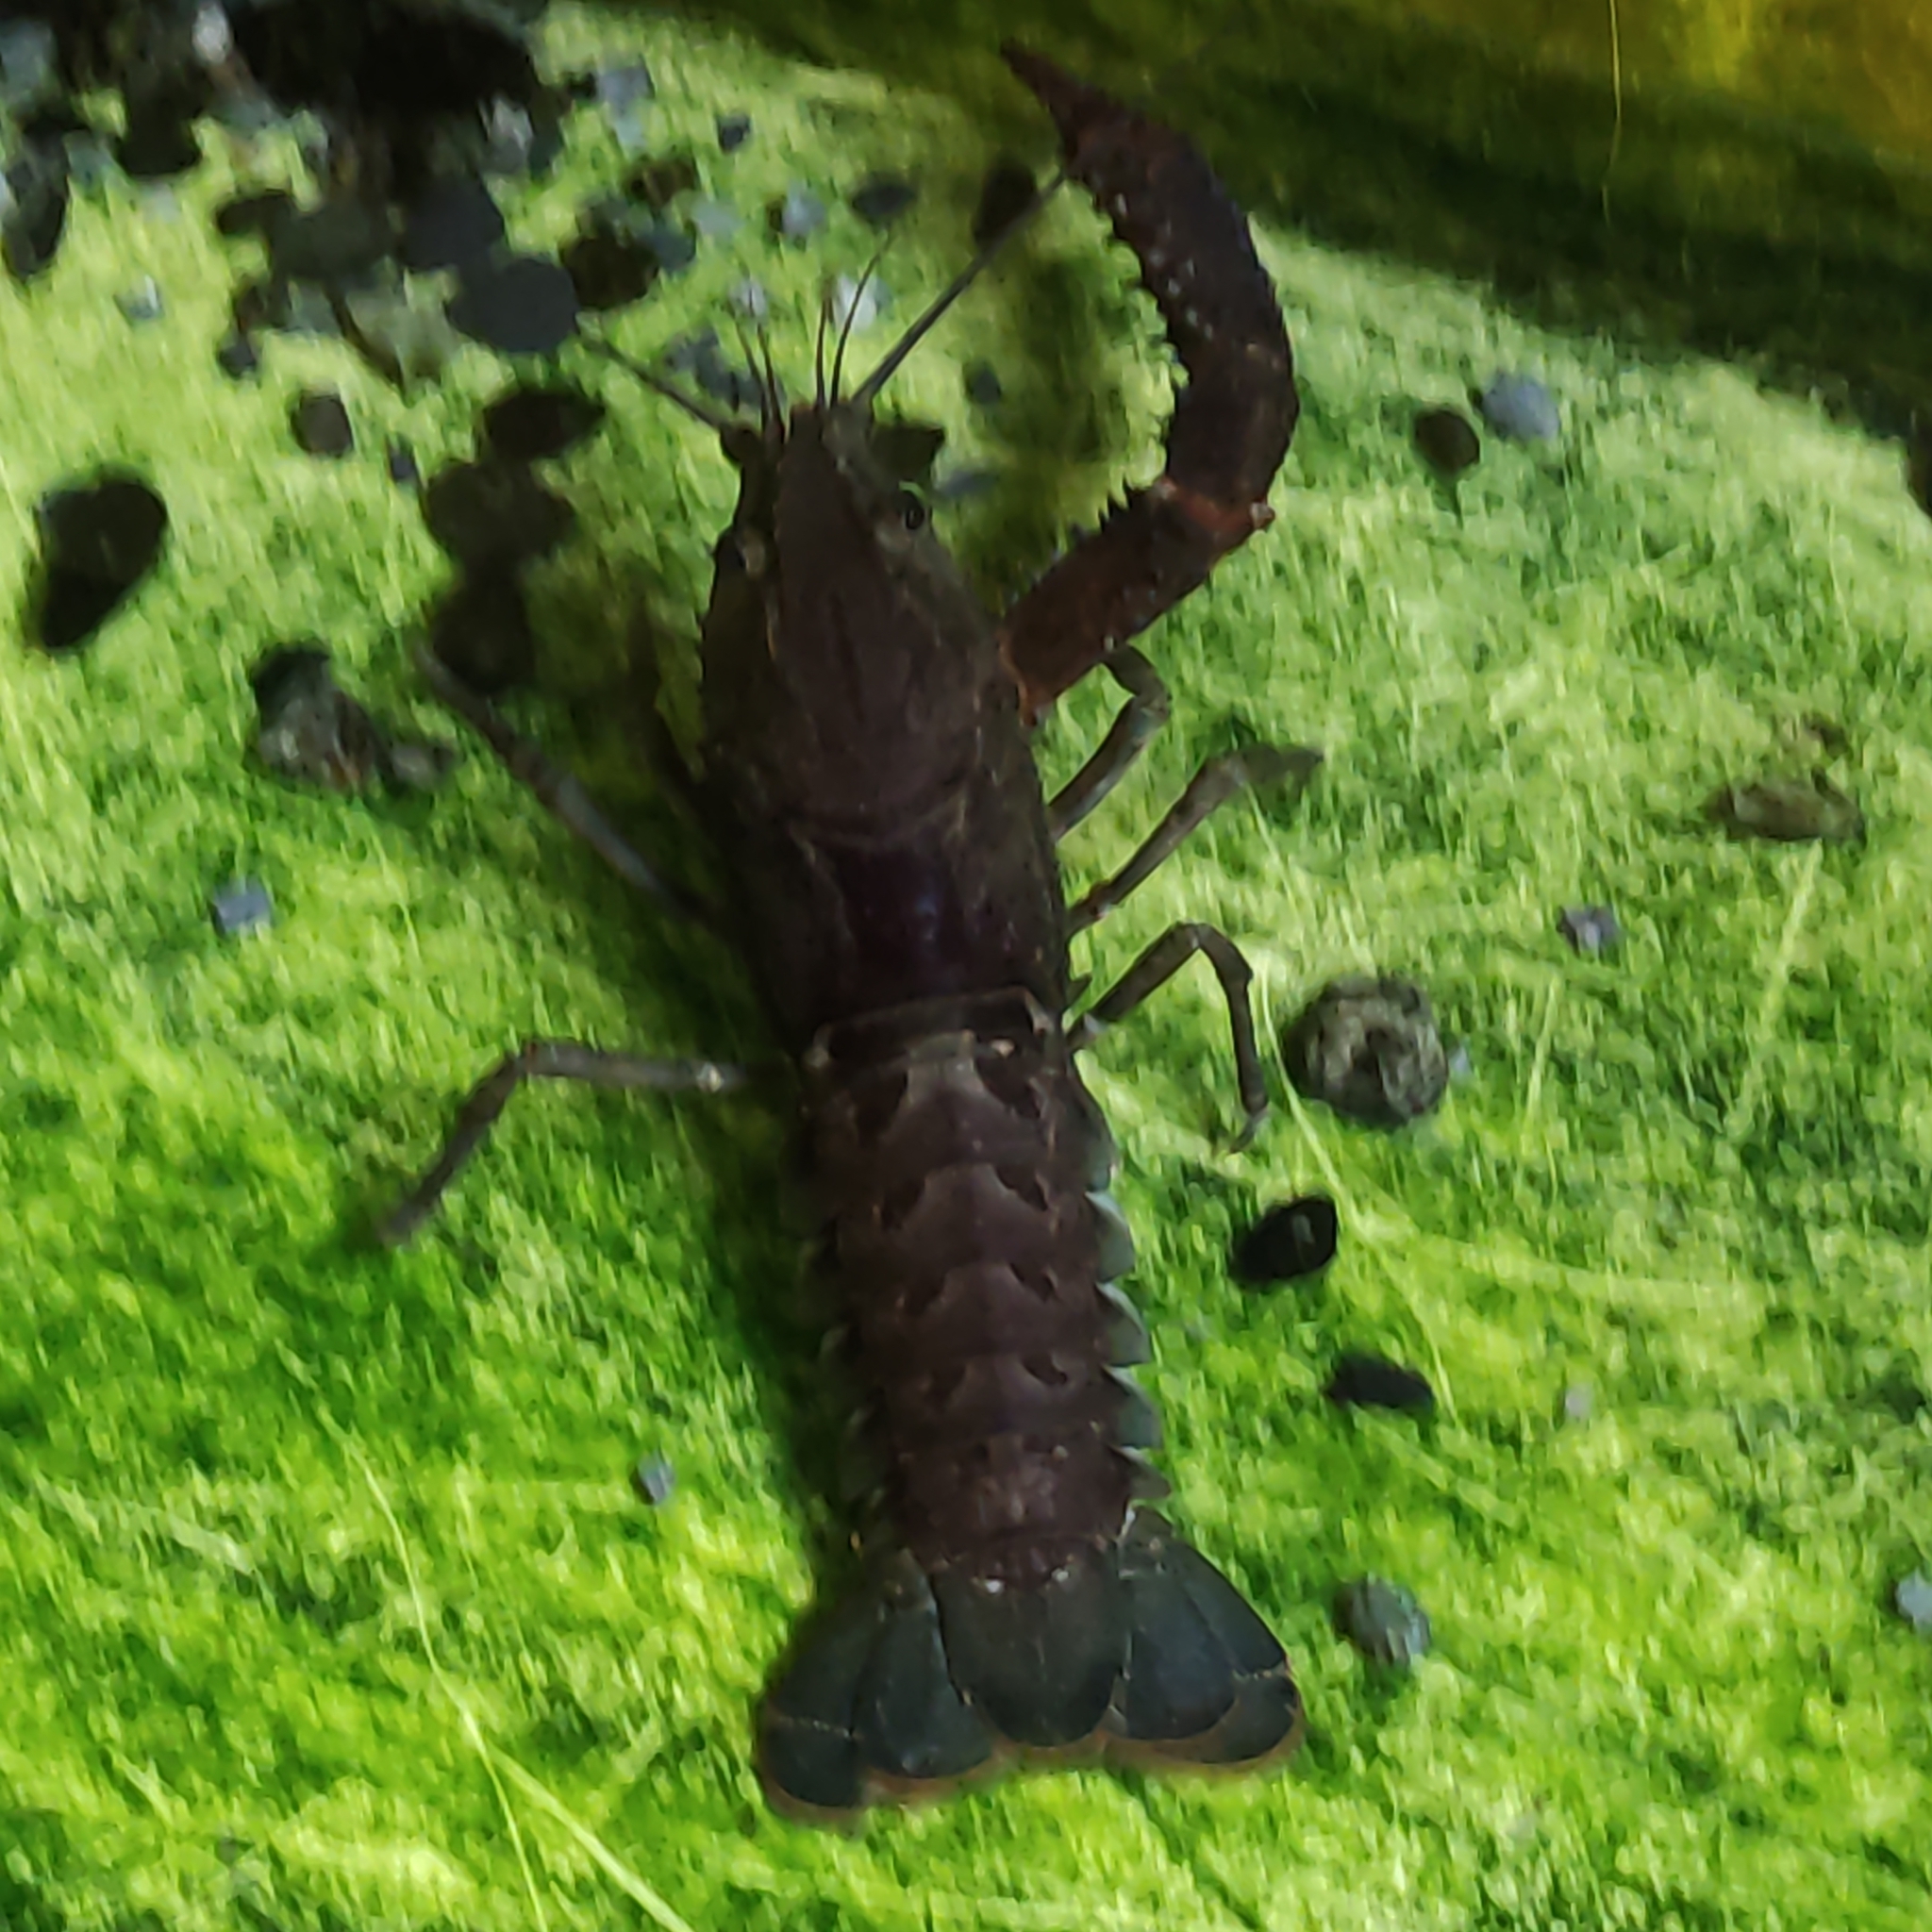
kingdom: Animalia
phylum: Arthropoda
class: Malacostraca
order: Decapoda
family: Parastacidae
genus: Paranephrops
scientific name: Paranephrops planifrons
